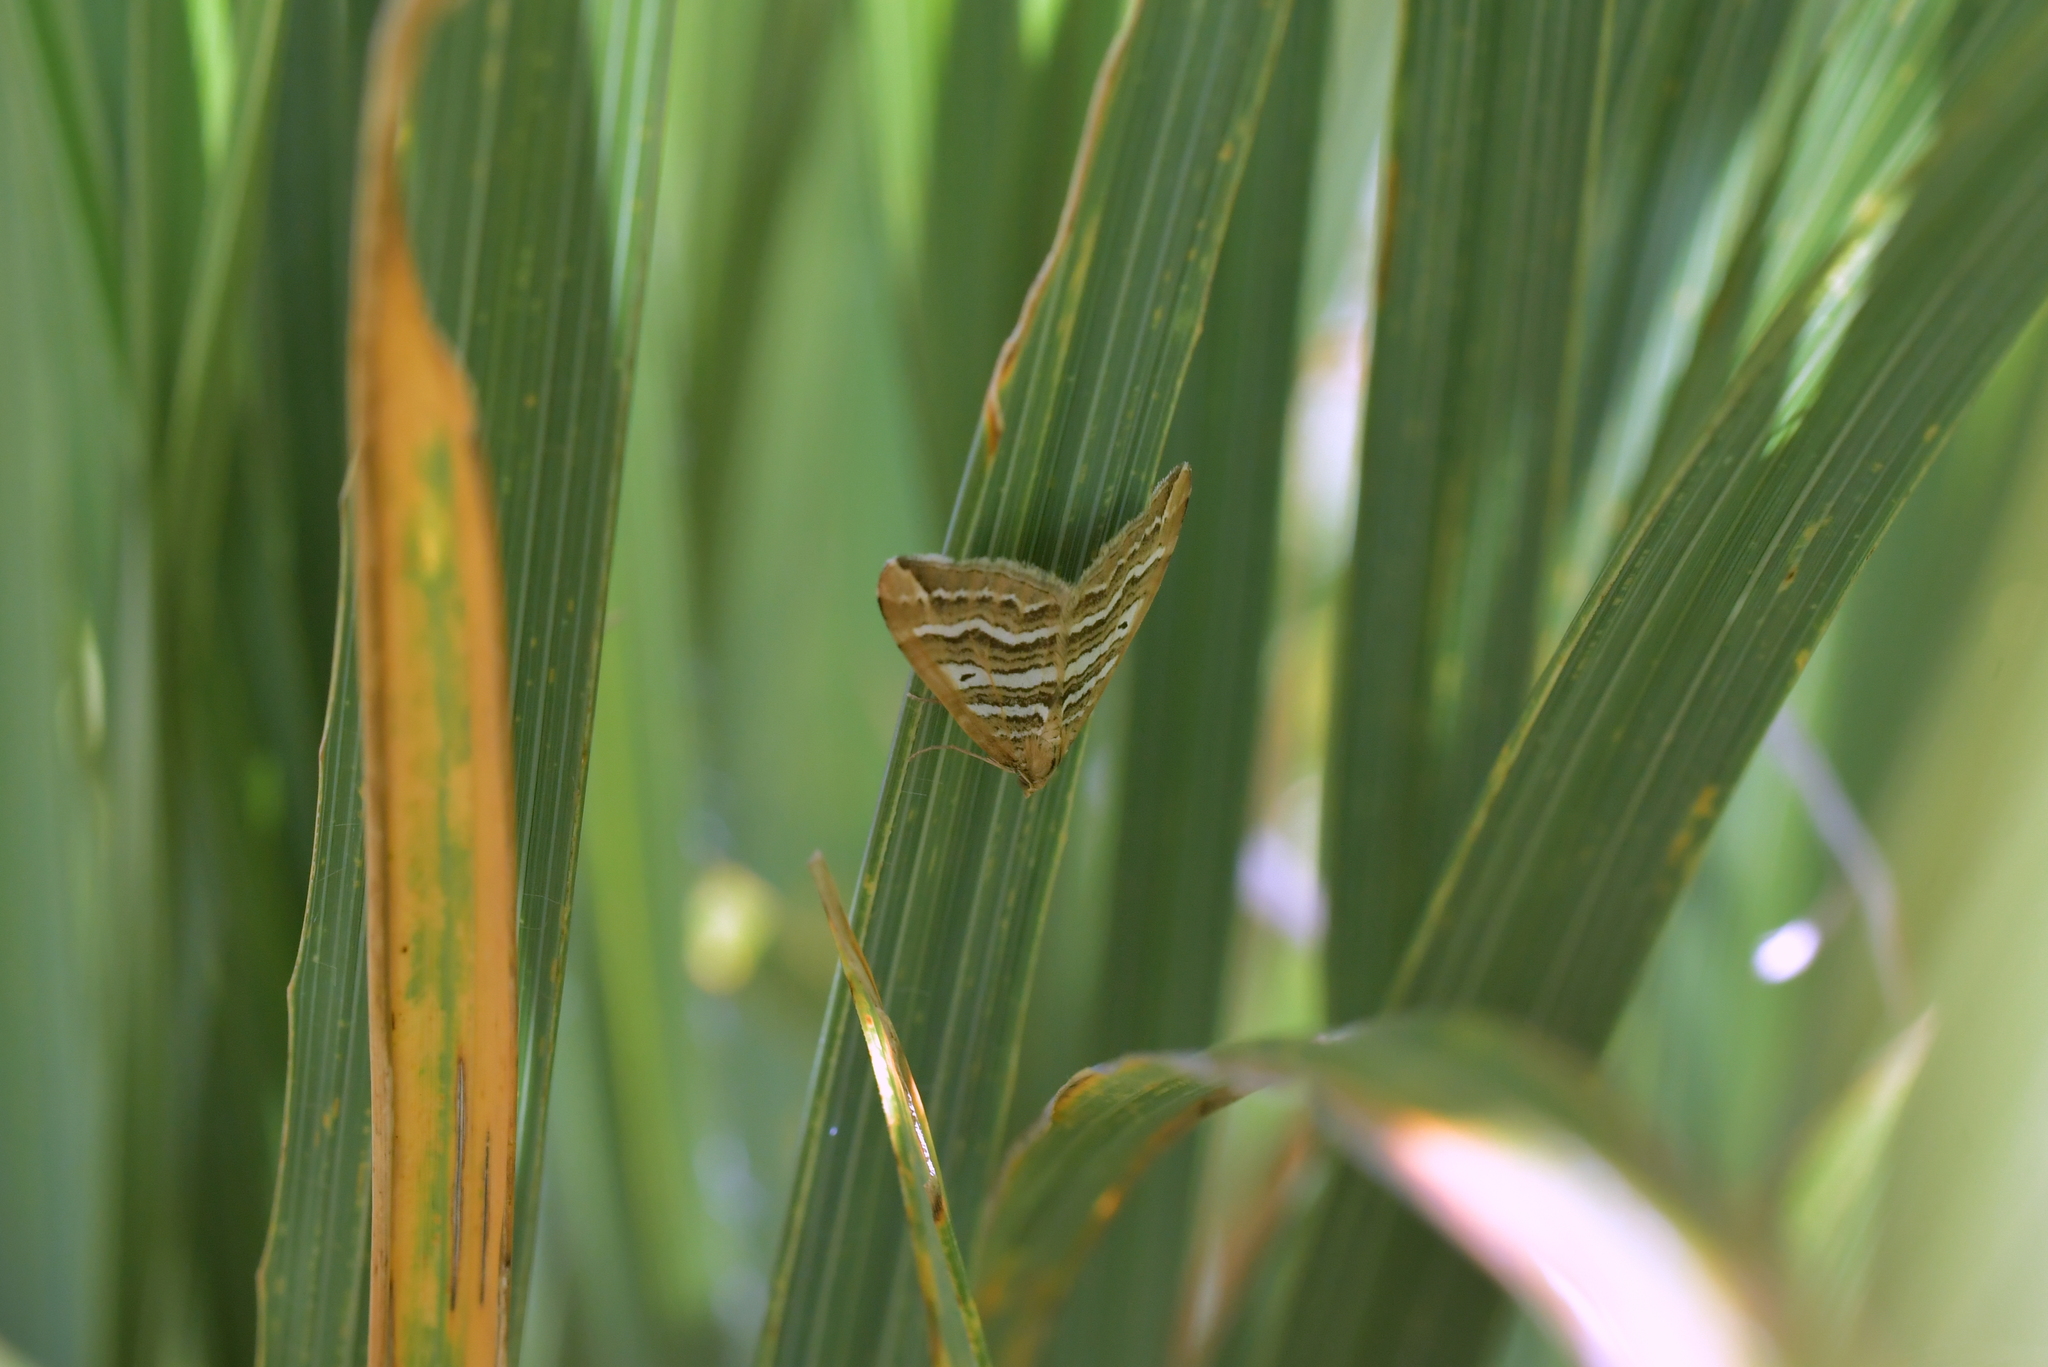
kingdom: Animalia
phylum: Arthropoda
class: Insecta
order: Lepidoptera
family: Geometridae
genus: Asaphodes
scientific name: Asaphodes cataphracta
